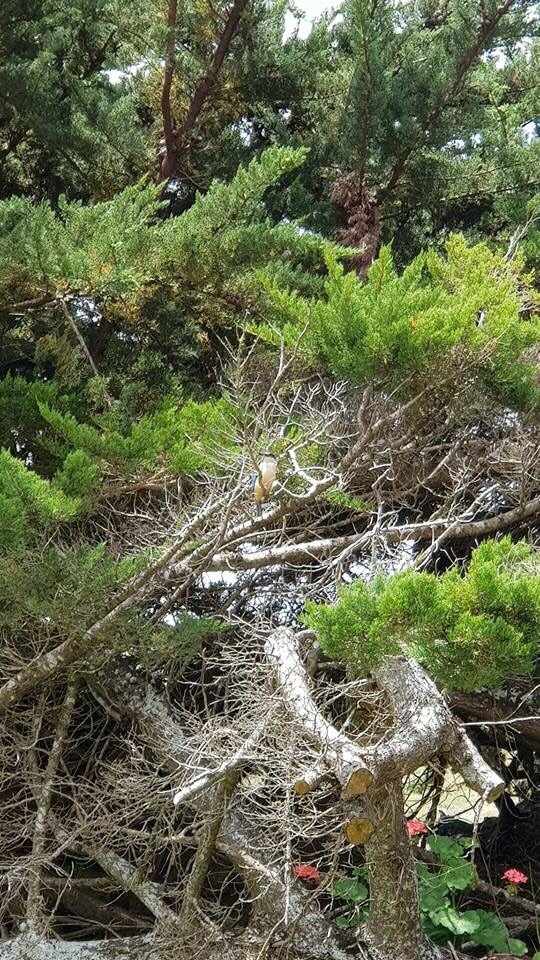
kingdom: Animalia
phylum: Chordata
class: Aves
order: Coraciiformes
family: Alcedinidae
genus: Todiramphus
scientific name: Todiramphus sanctus
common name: Sacred kingfisher
